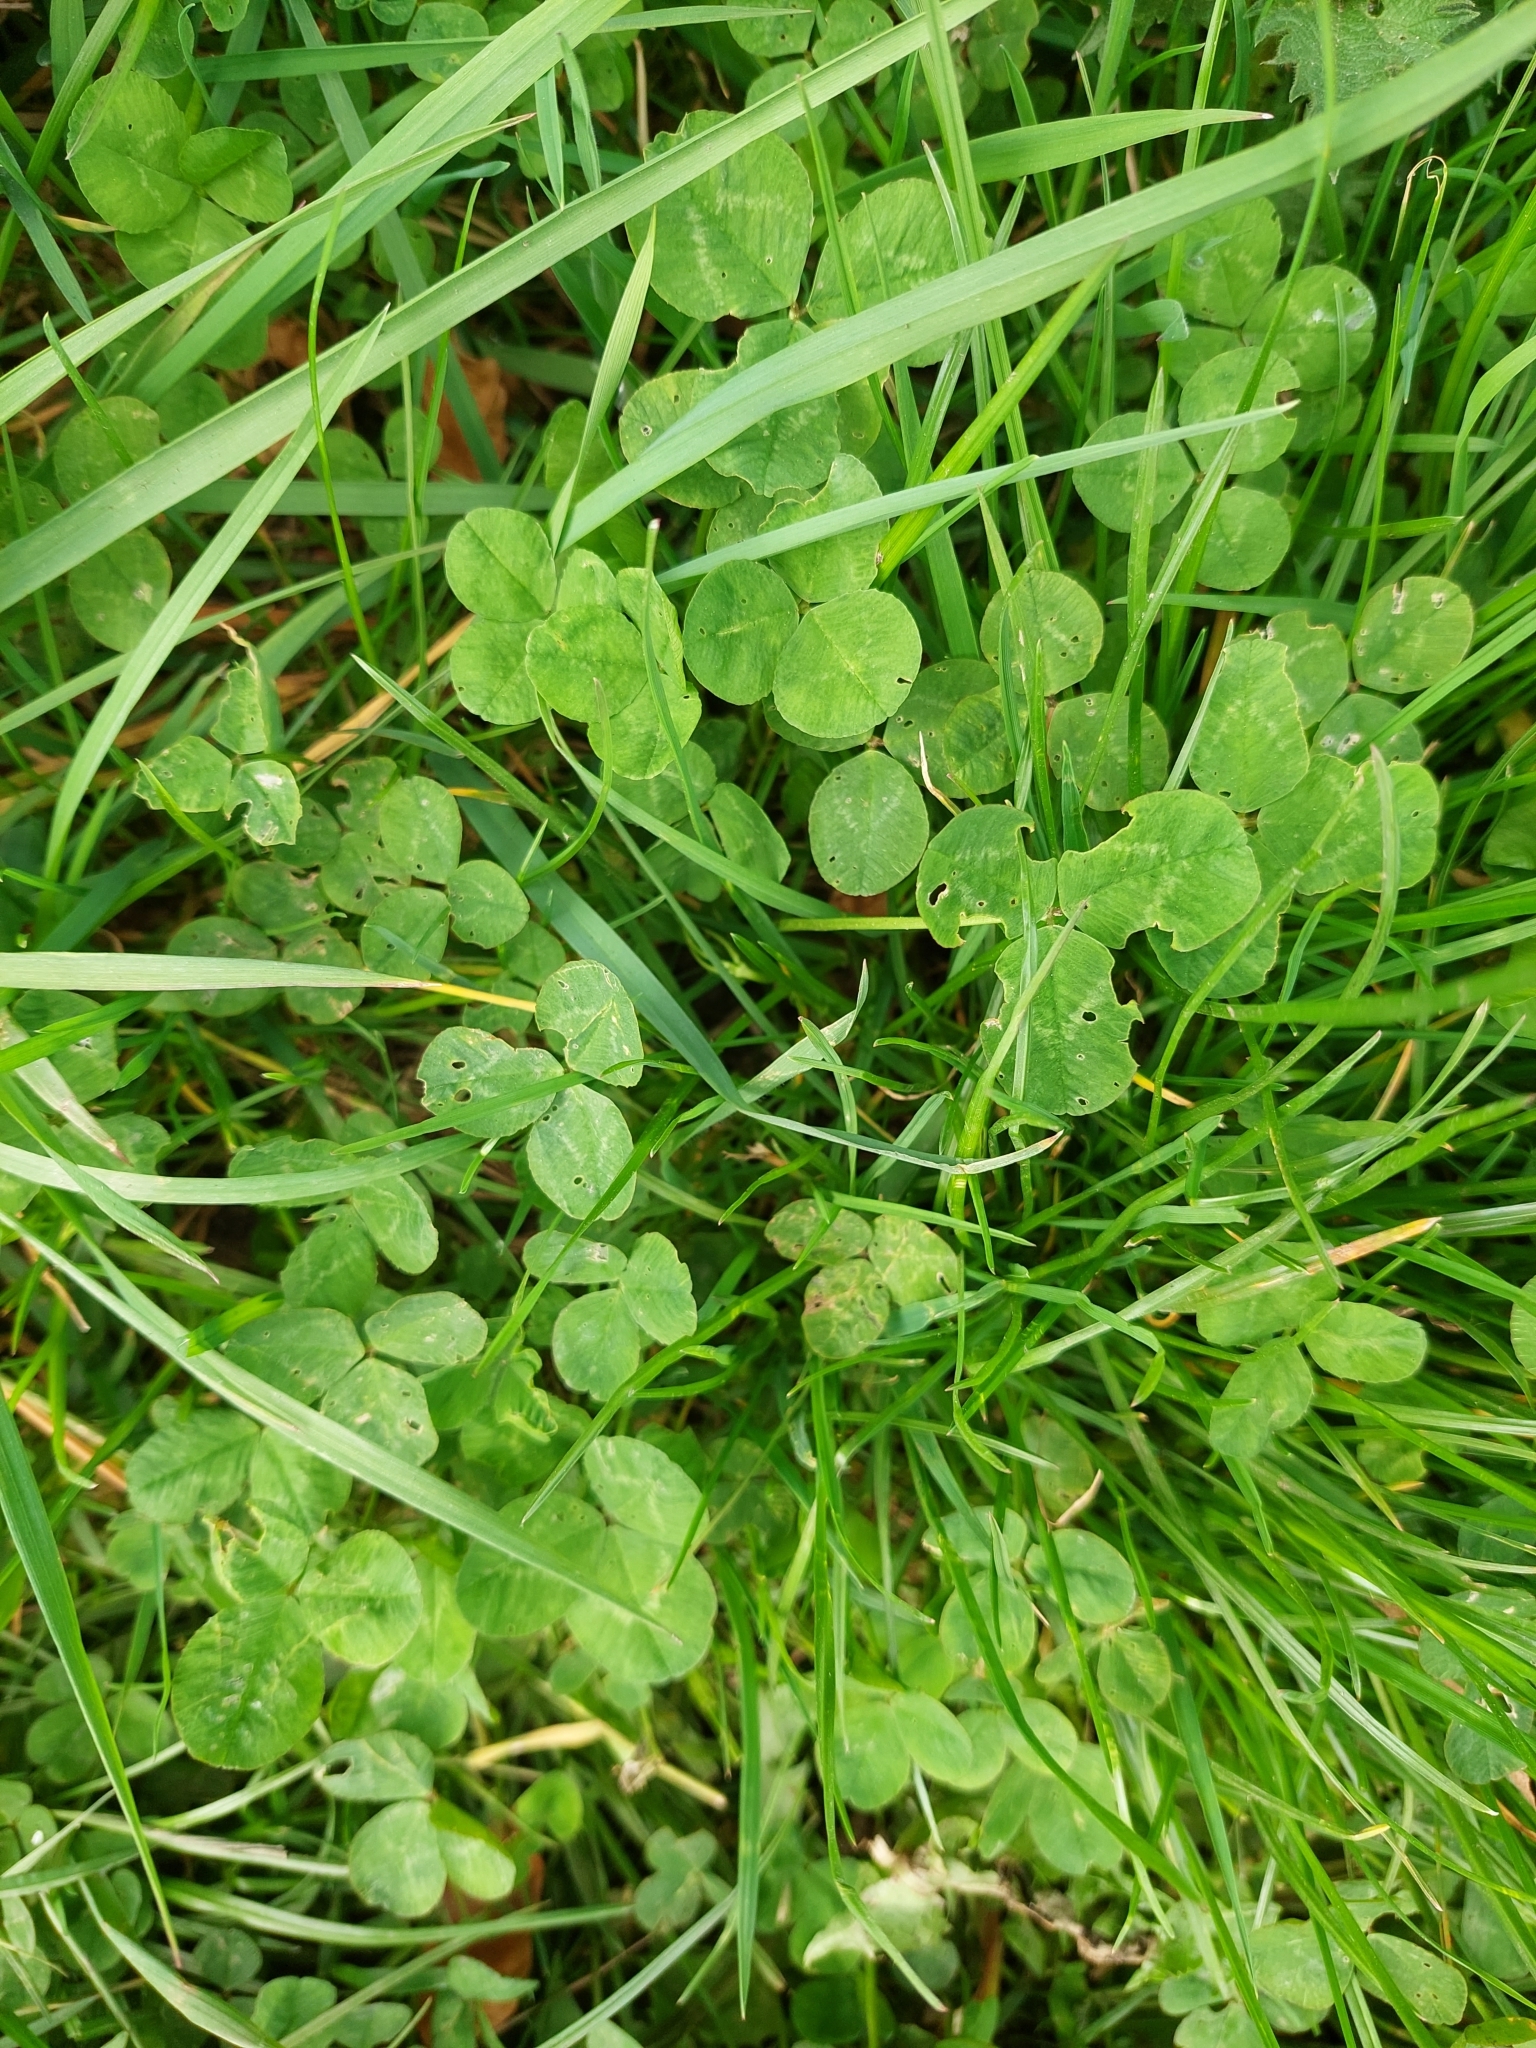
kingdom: Plantae
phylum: Tracheophyta
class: Magnoliopsida
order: Fabales
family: Fabaceae
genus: Trifolium
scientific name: Trifolium repens
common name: White clover
